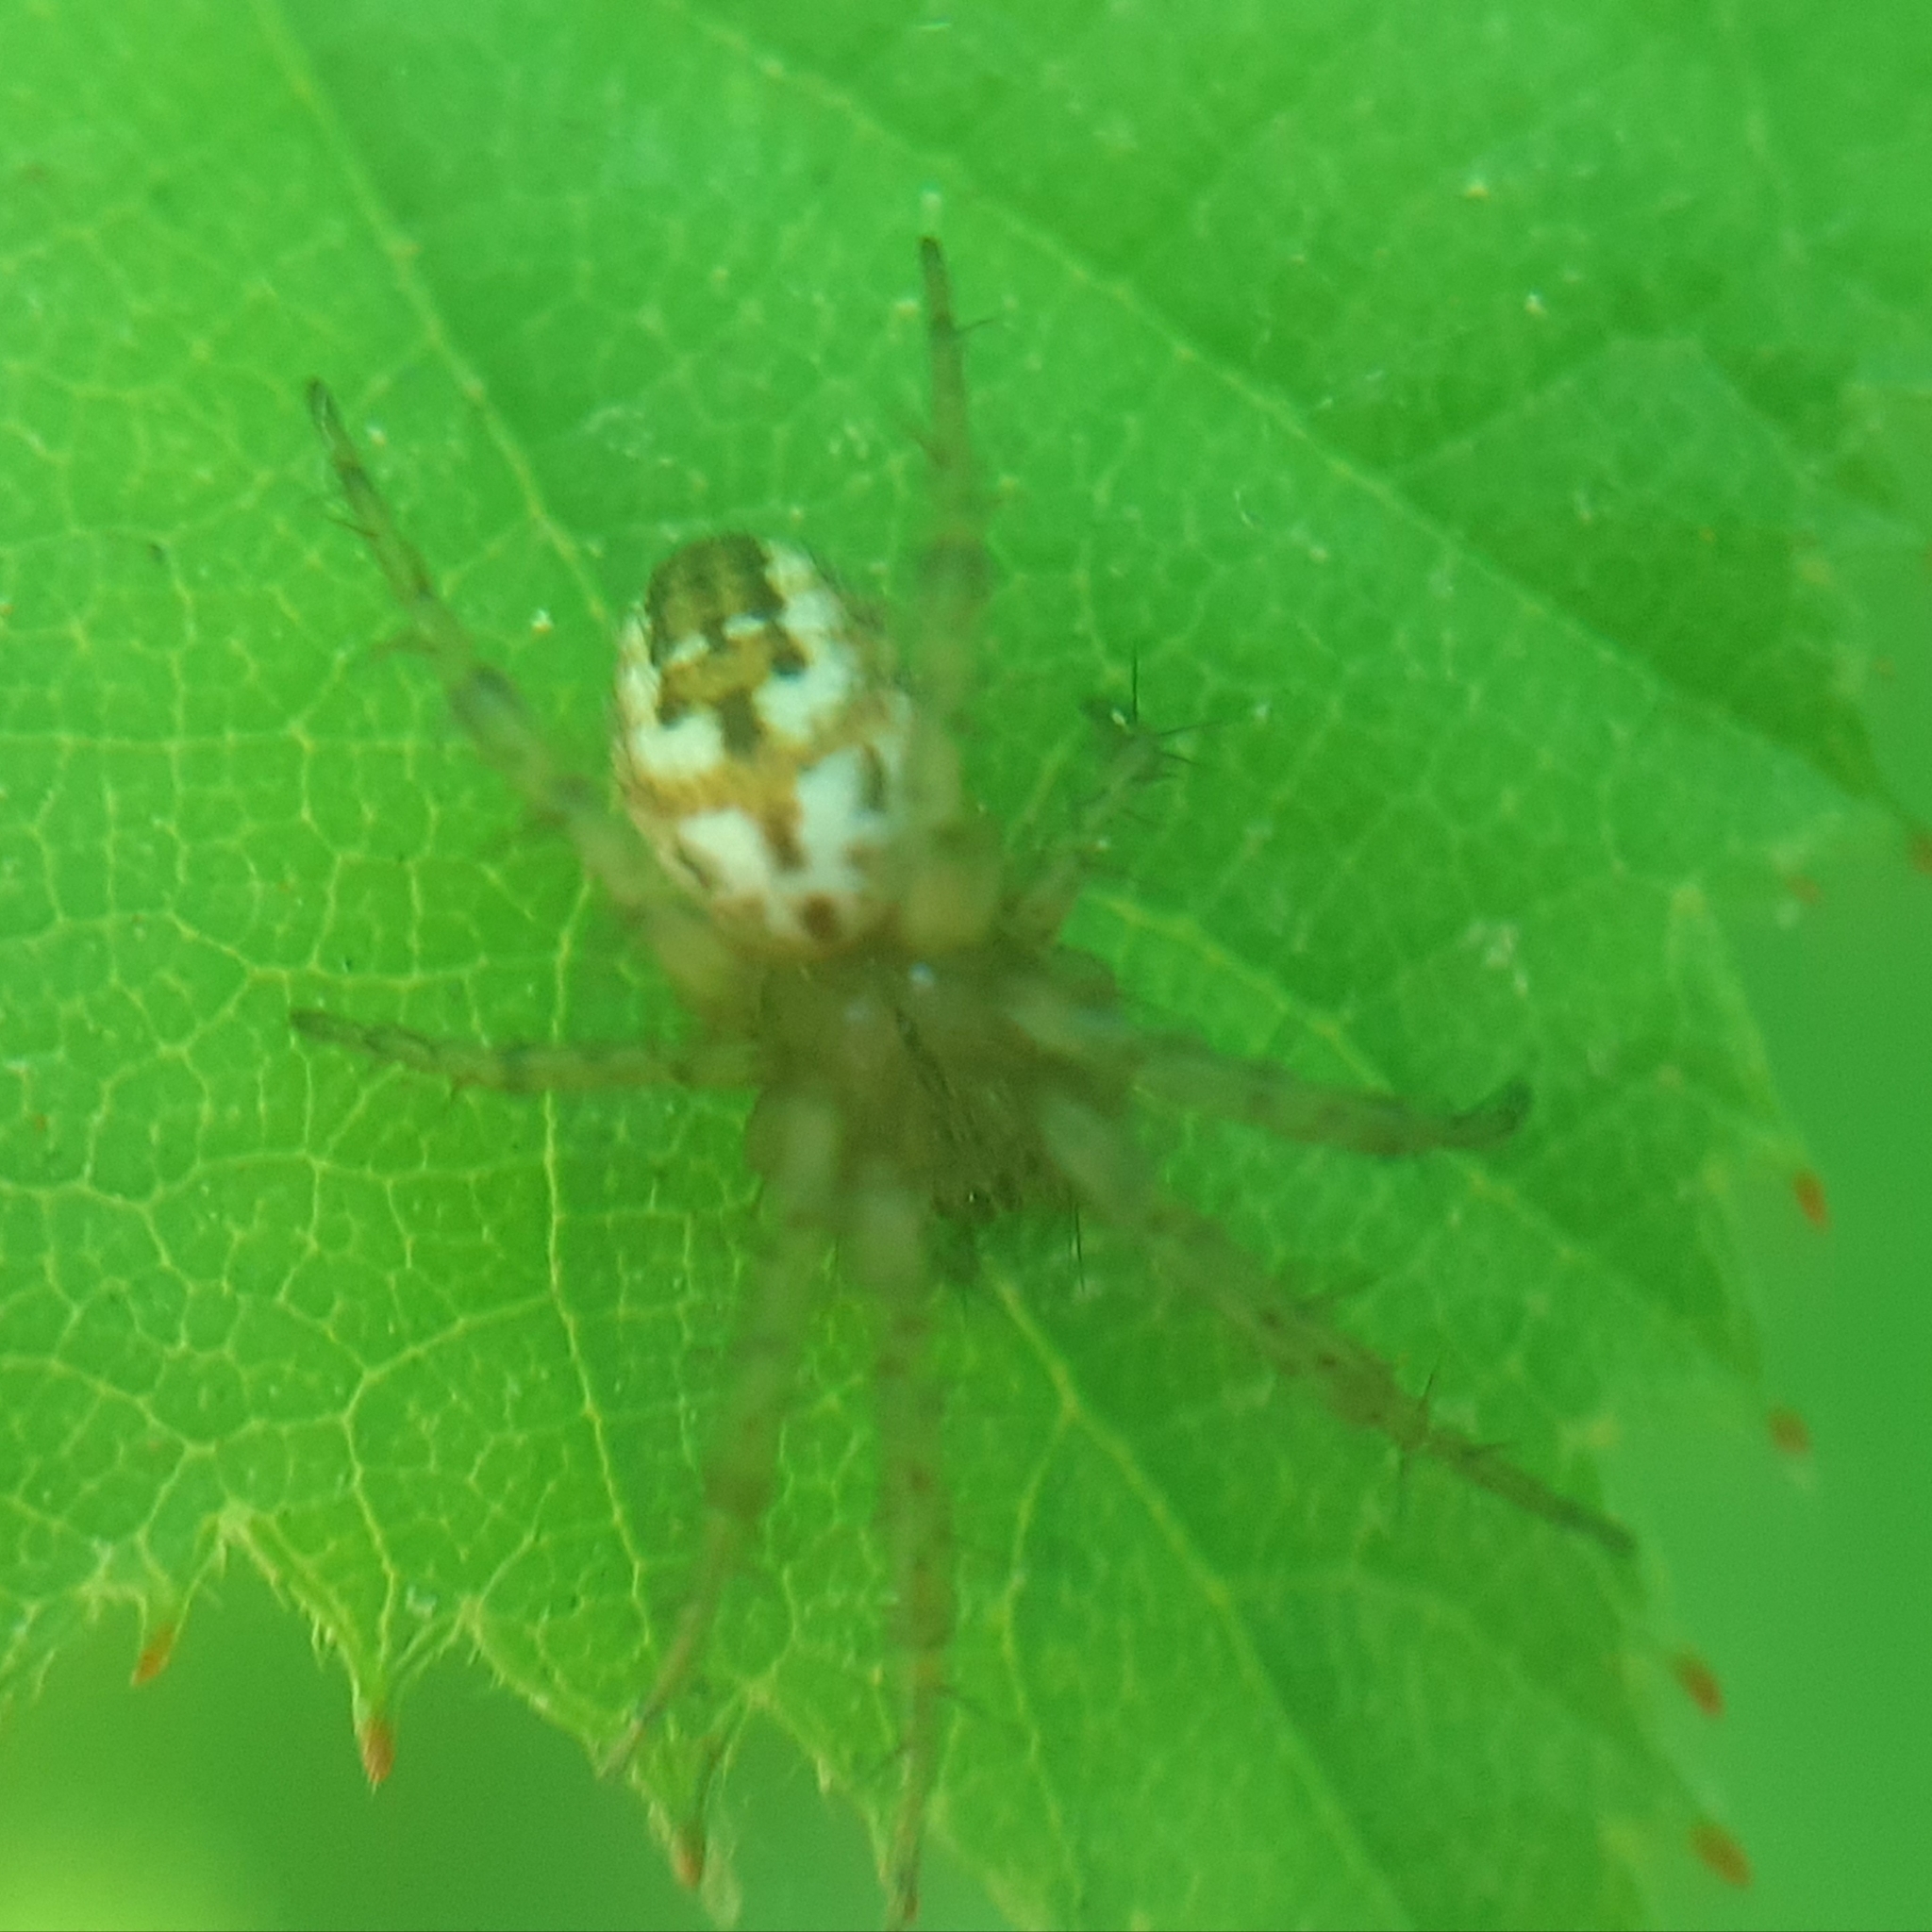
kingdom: Animalia
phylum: Arthropoda
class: Arachnida
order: Araneae
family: Araneidae
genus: Mangora
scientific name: Mangora acalypha
